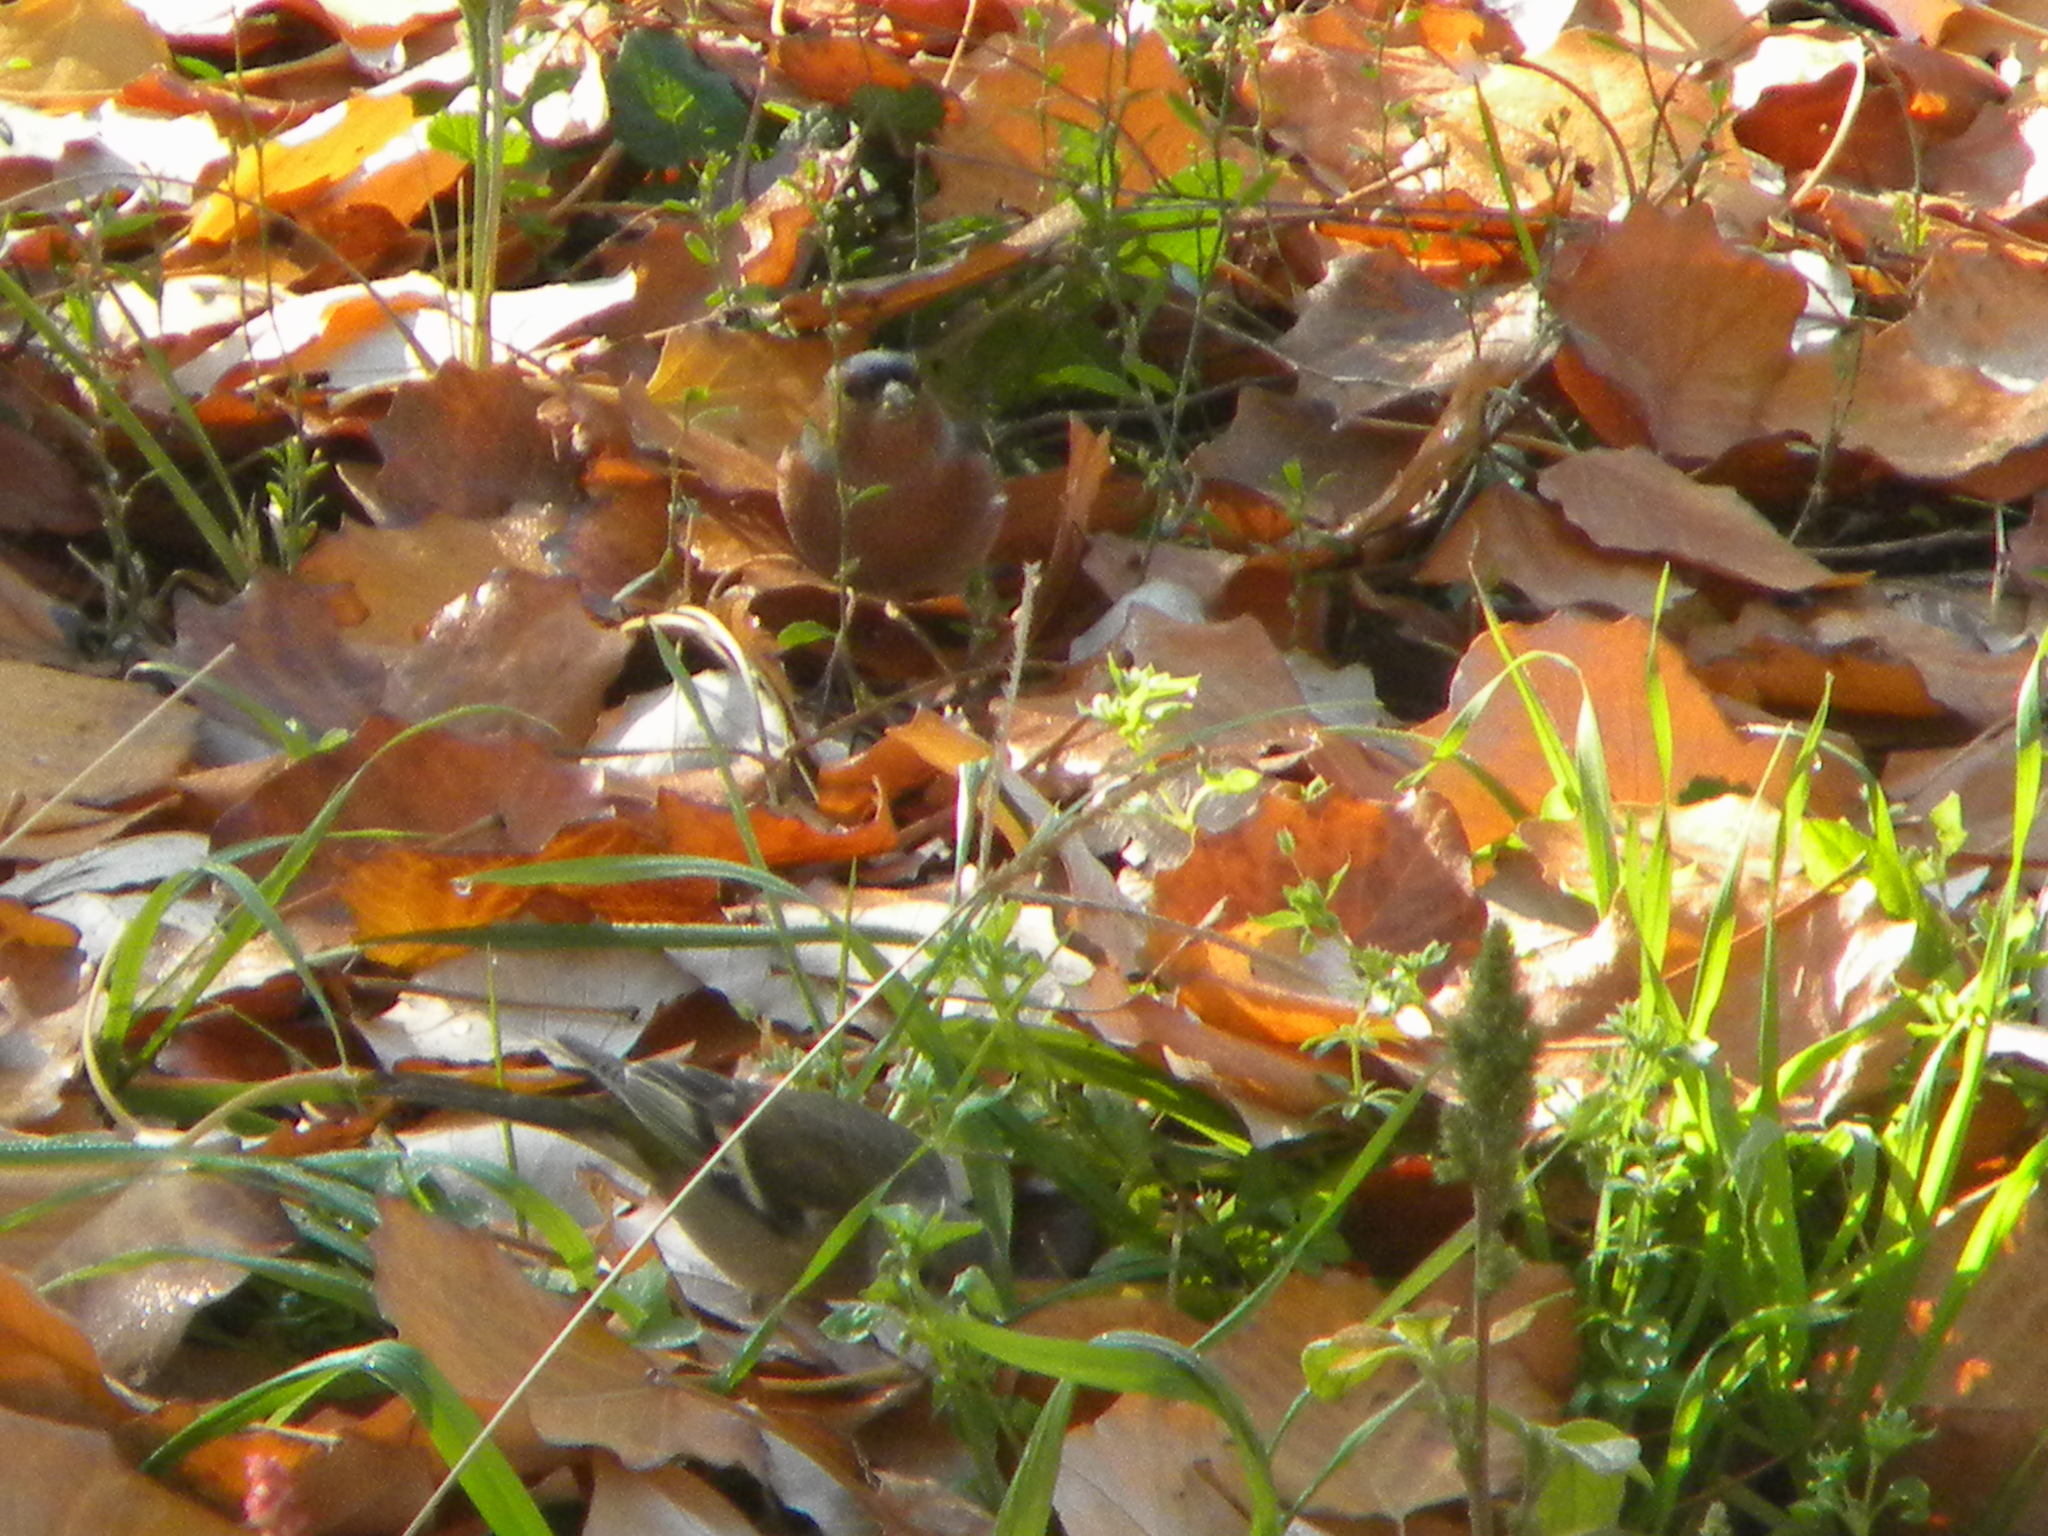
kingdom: Animalia
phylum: Chordata
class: Aves
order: Passeriformes
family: Fringillidae
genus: Fringilla
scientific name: Fringilla coelebs
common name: Common chaffinch
